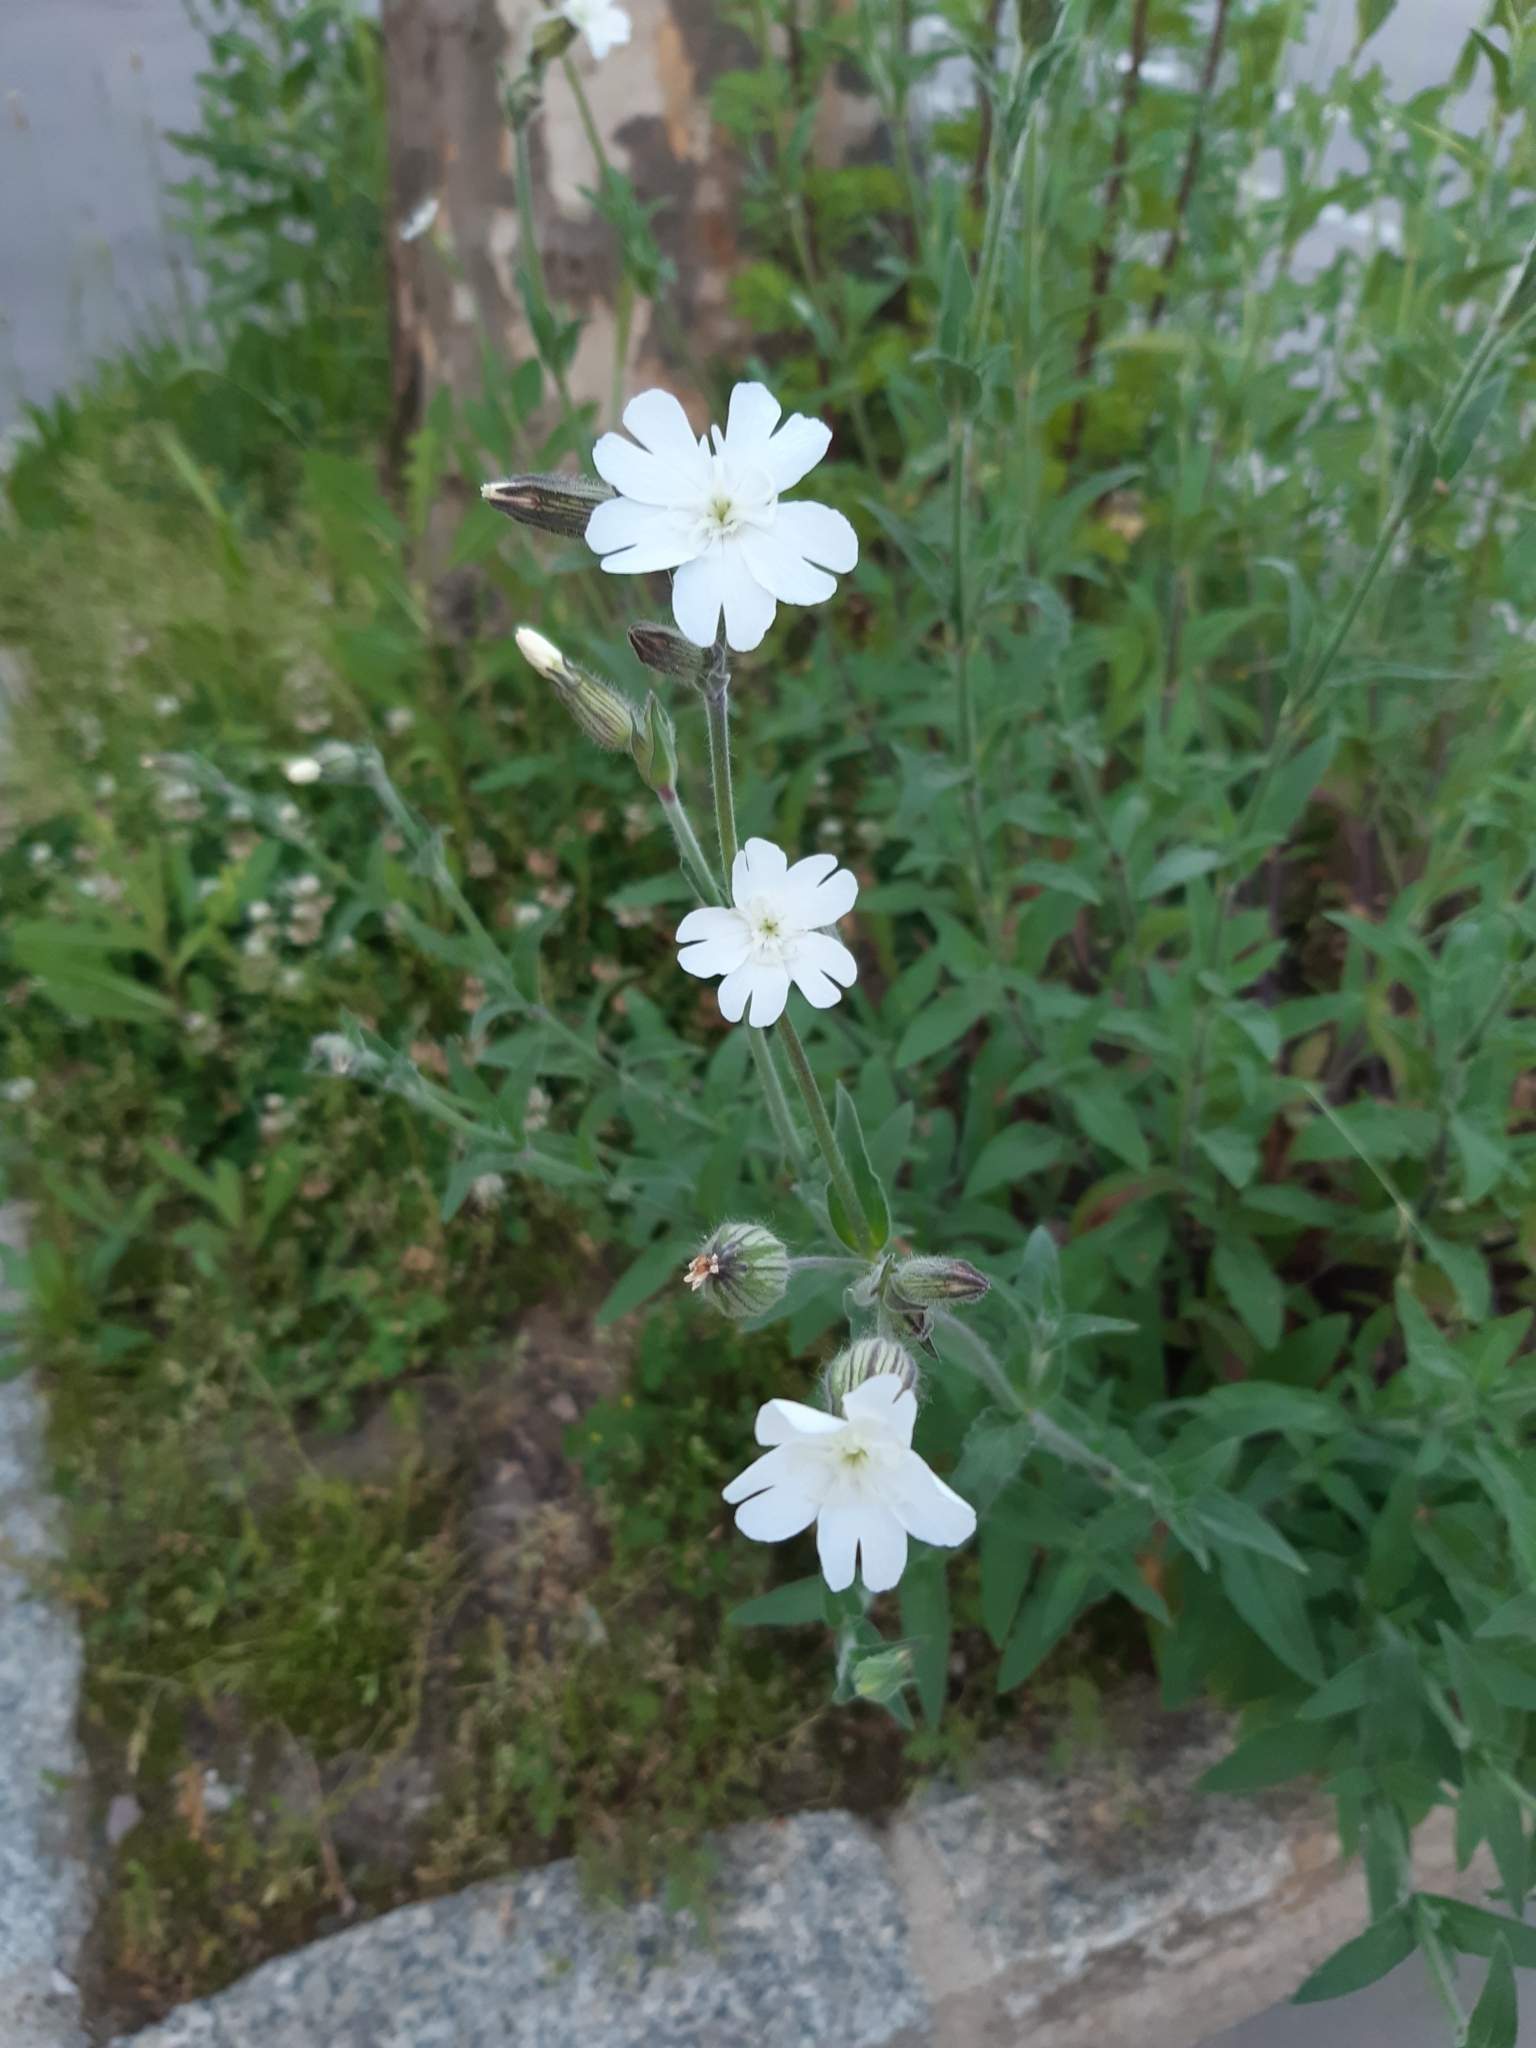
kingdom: Plantae
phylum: Tracheophyta
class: Magnoliopsida
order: Caryophyllales
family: Caryophyllaceae
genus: Silene
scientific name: Silene latifolia
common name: White campion
